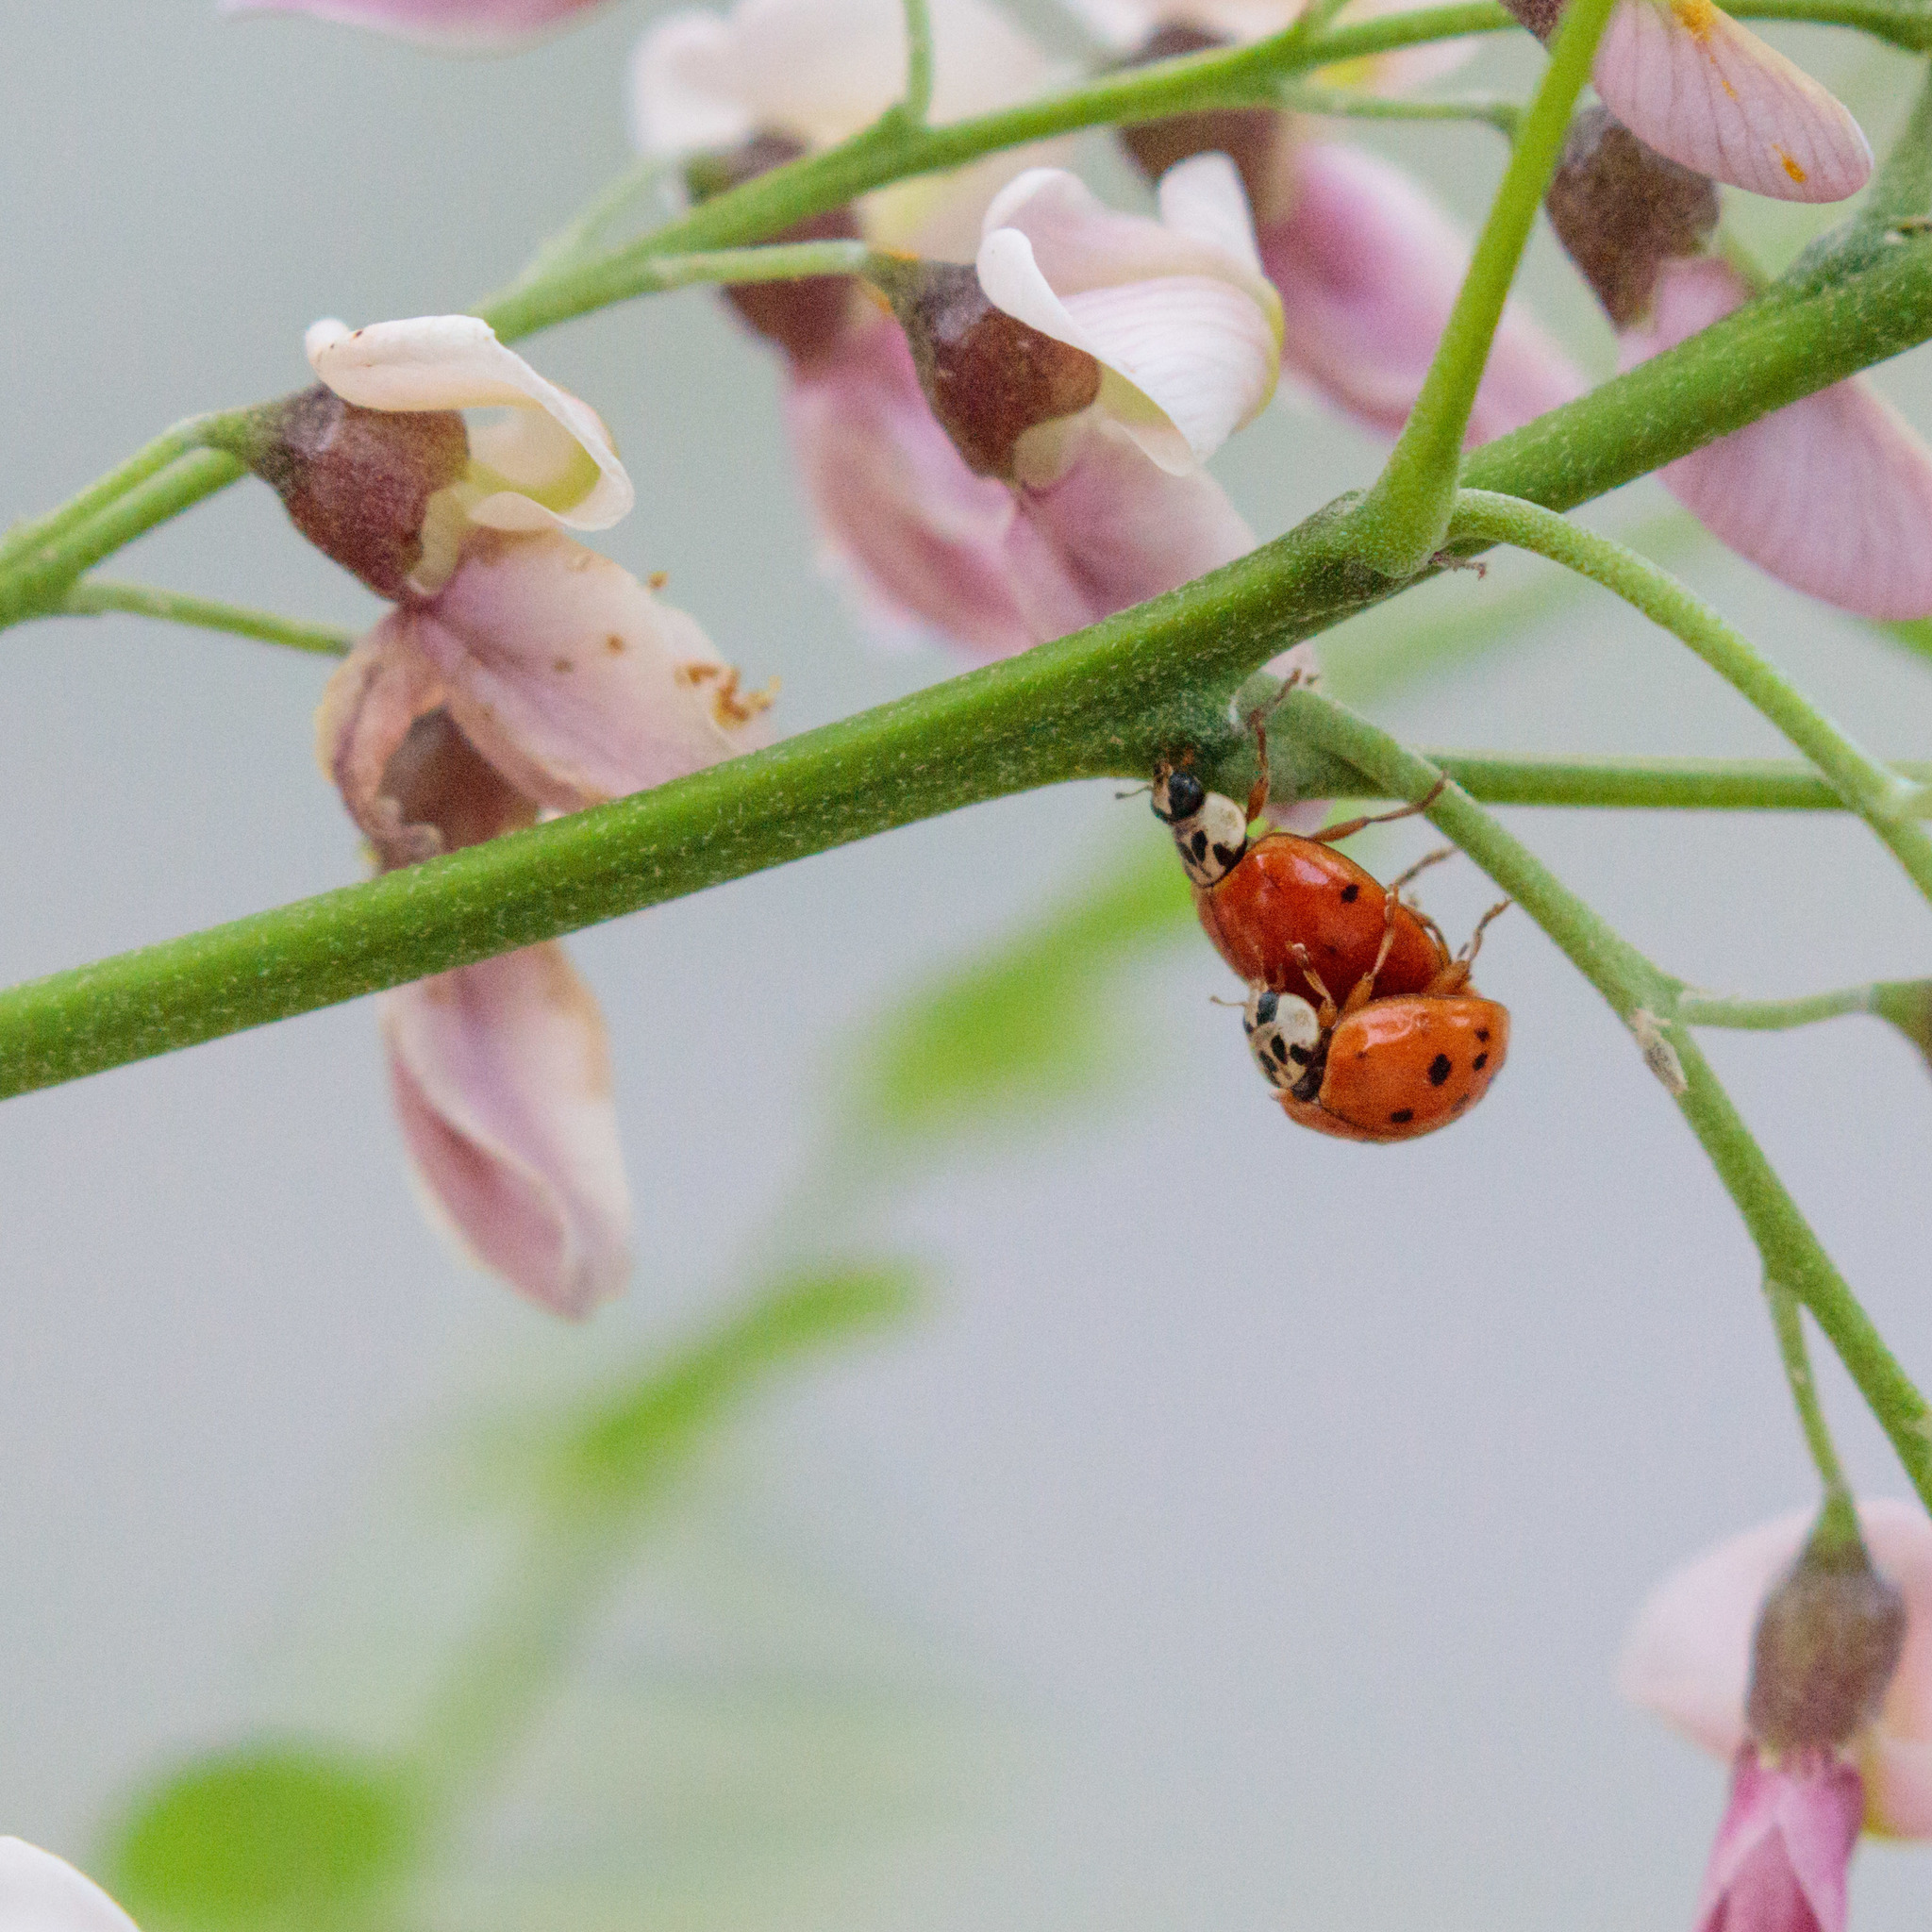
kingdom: Animalia
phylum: Arthropoda
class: Insecta
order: Coleoptera
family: Coccinellidae
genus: Harmonia
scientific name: Harmonia axyridis
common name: Harlequin ladybird
